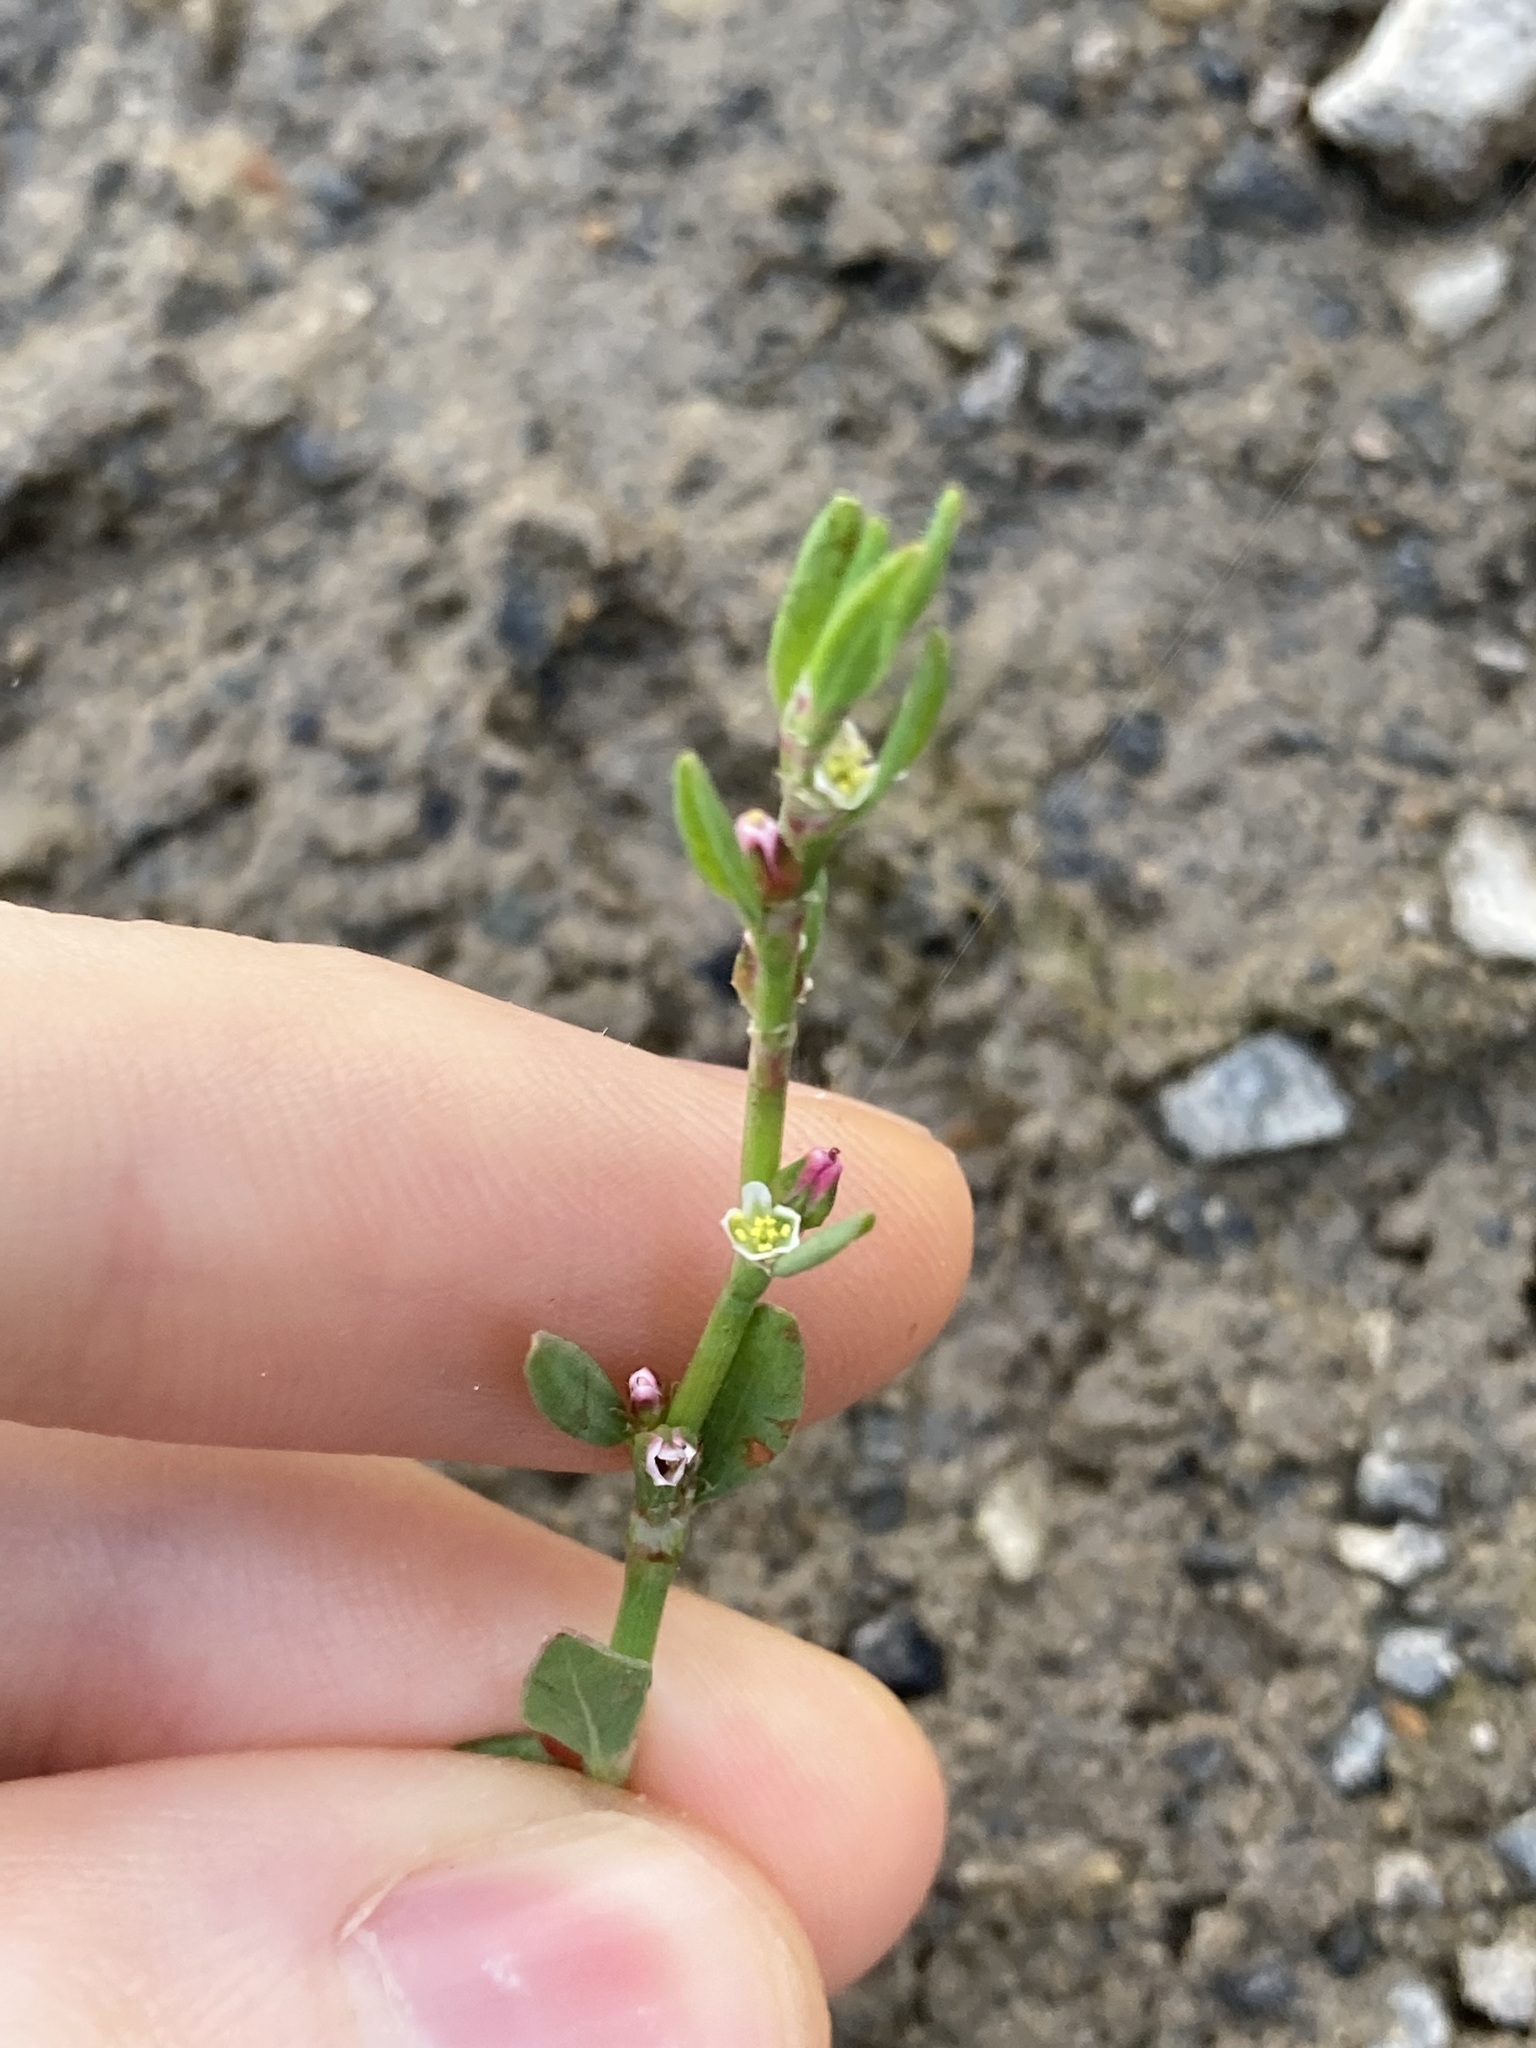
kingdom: Plantae
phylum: Tracheophyta
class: Magnoliopsida
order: Caryophyllales
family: Polygonaceae
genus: Polygonum
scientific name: Polygonum aviculare
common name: Prostrate knotweed
